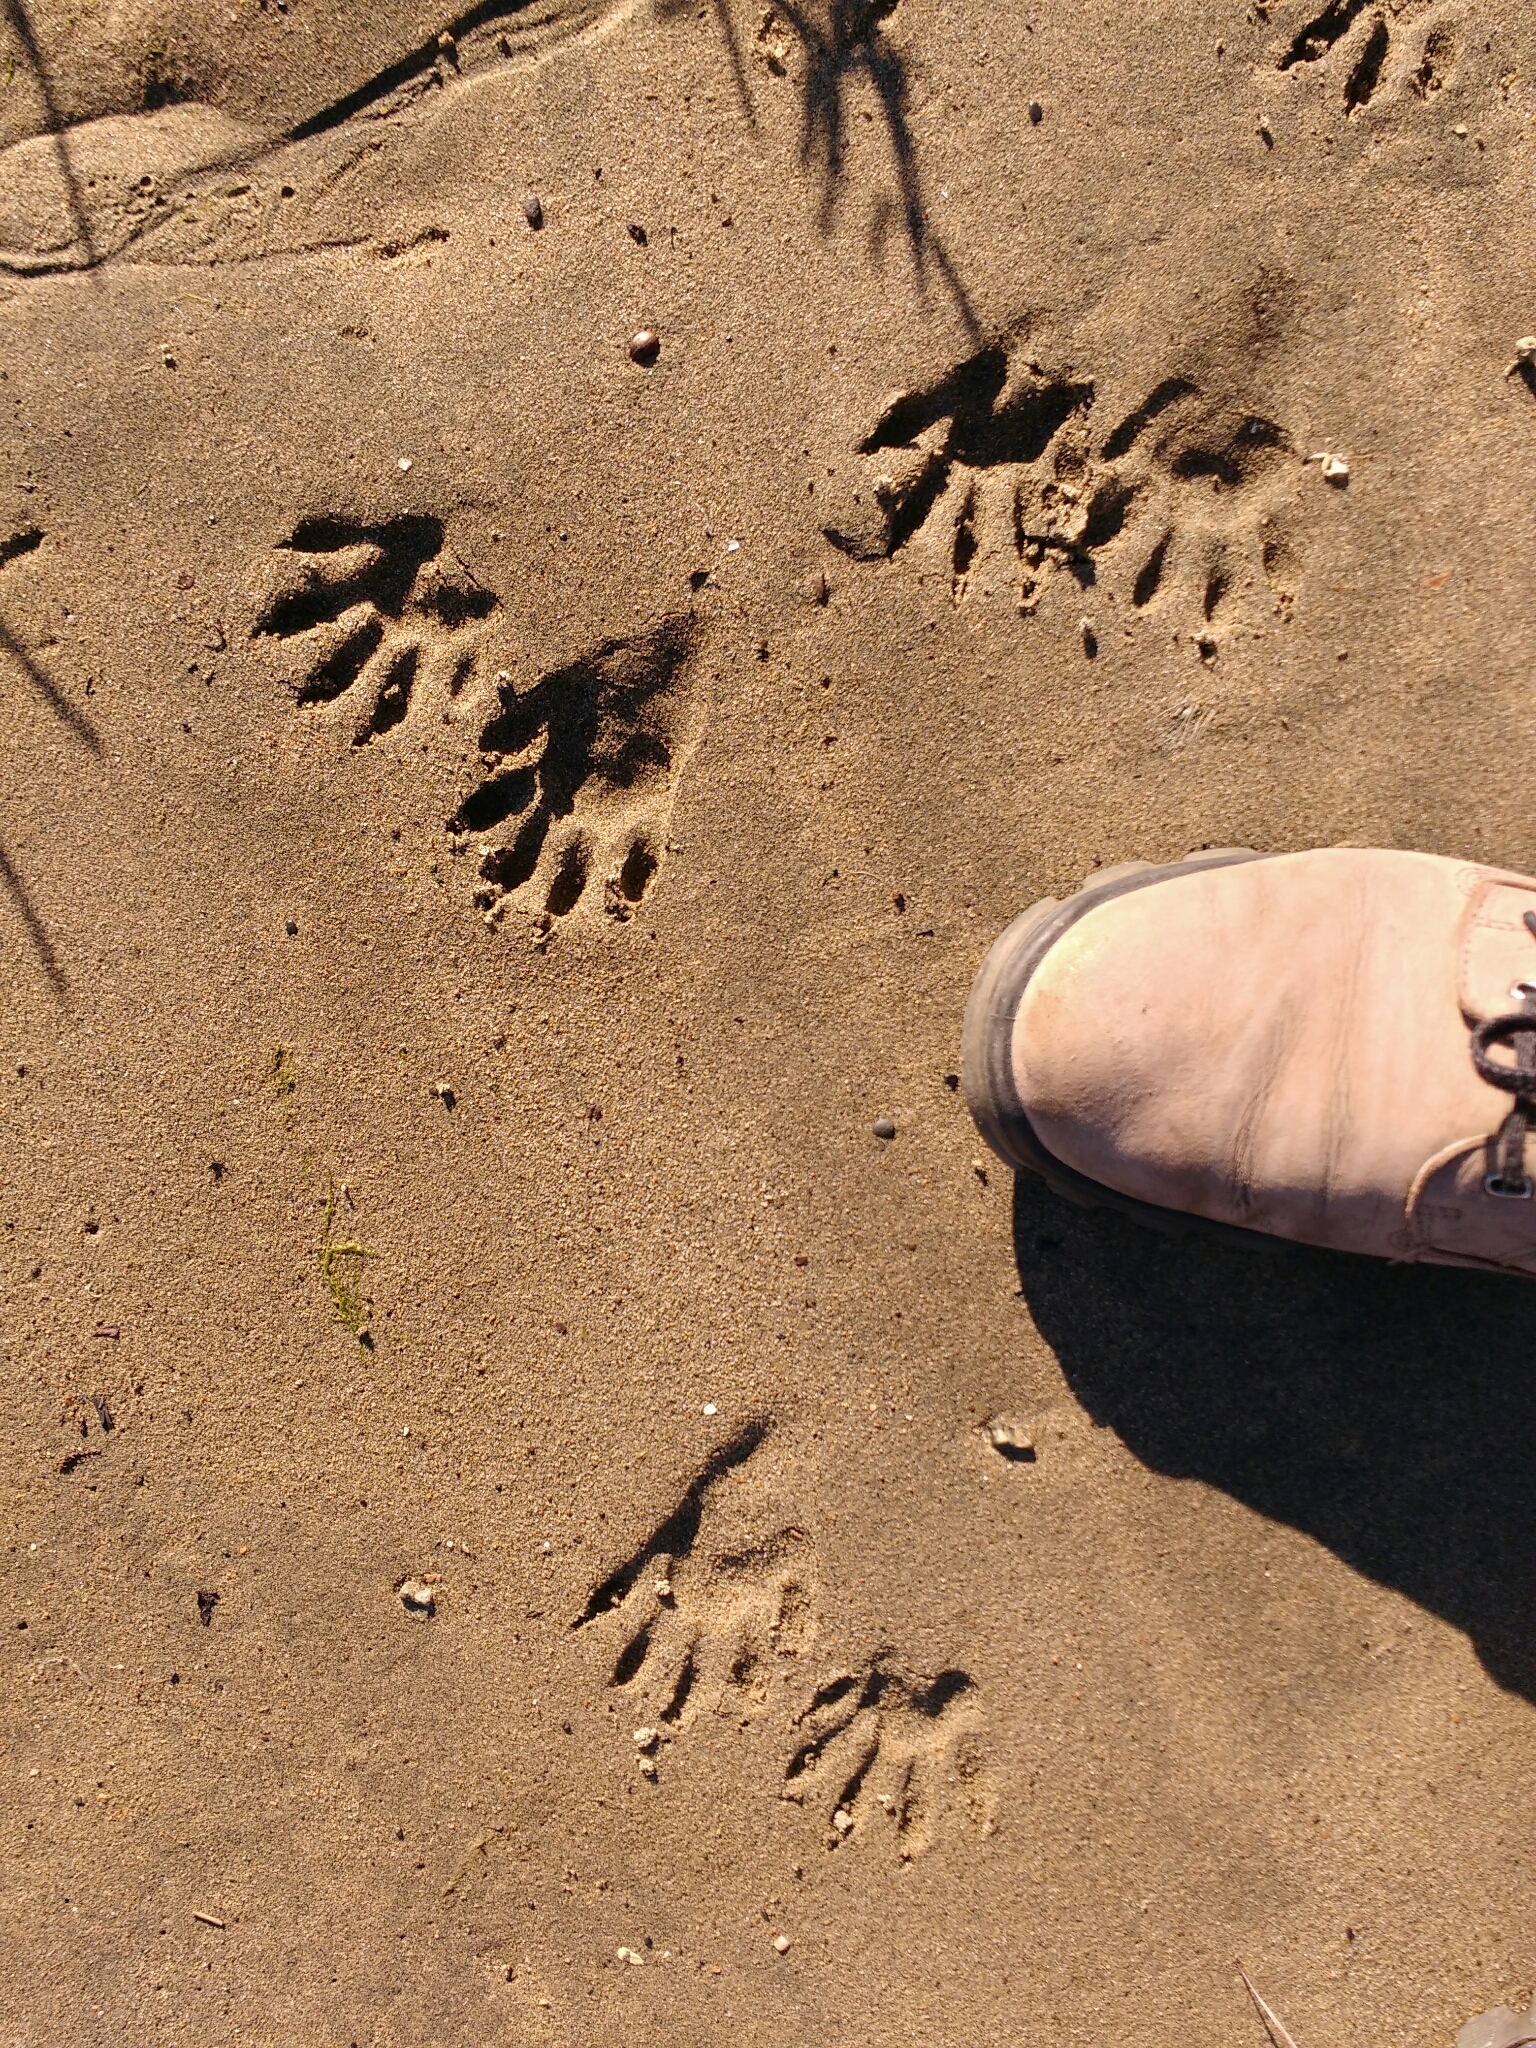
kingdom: Animalia
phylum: Chordata
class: Mammalia
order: Carnivora
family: Procyonidae
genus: Procyon
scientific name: Procyon lotor
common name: Raccoon
